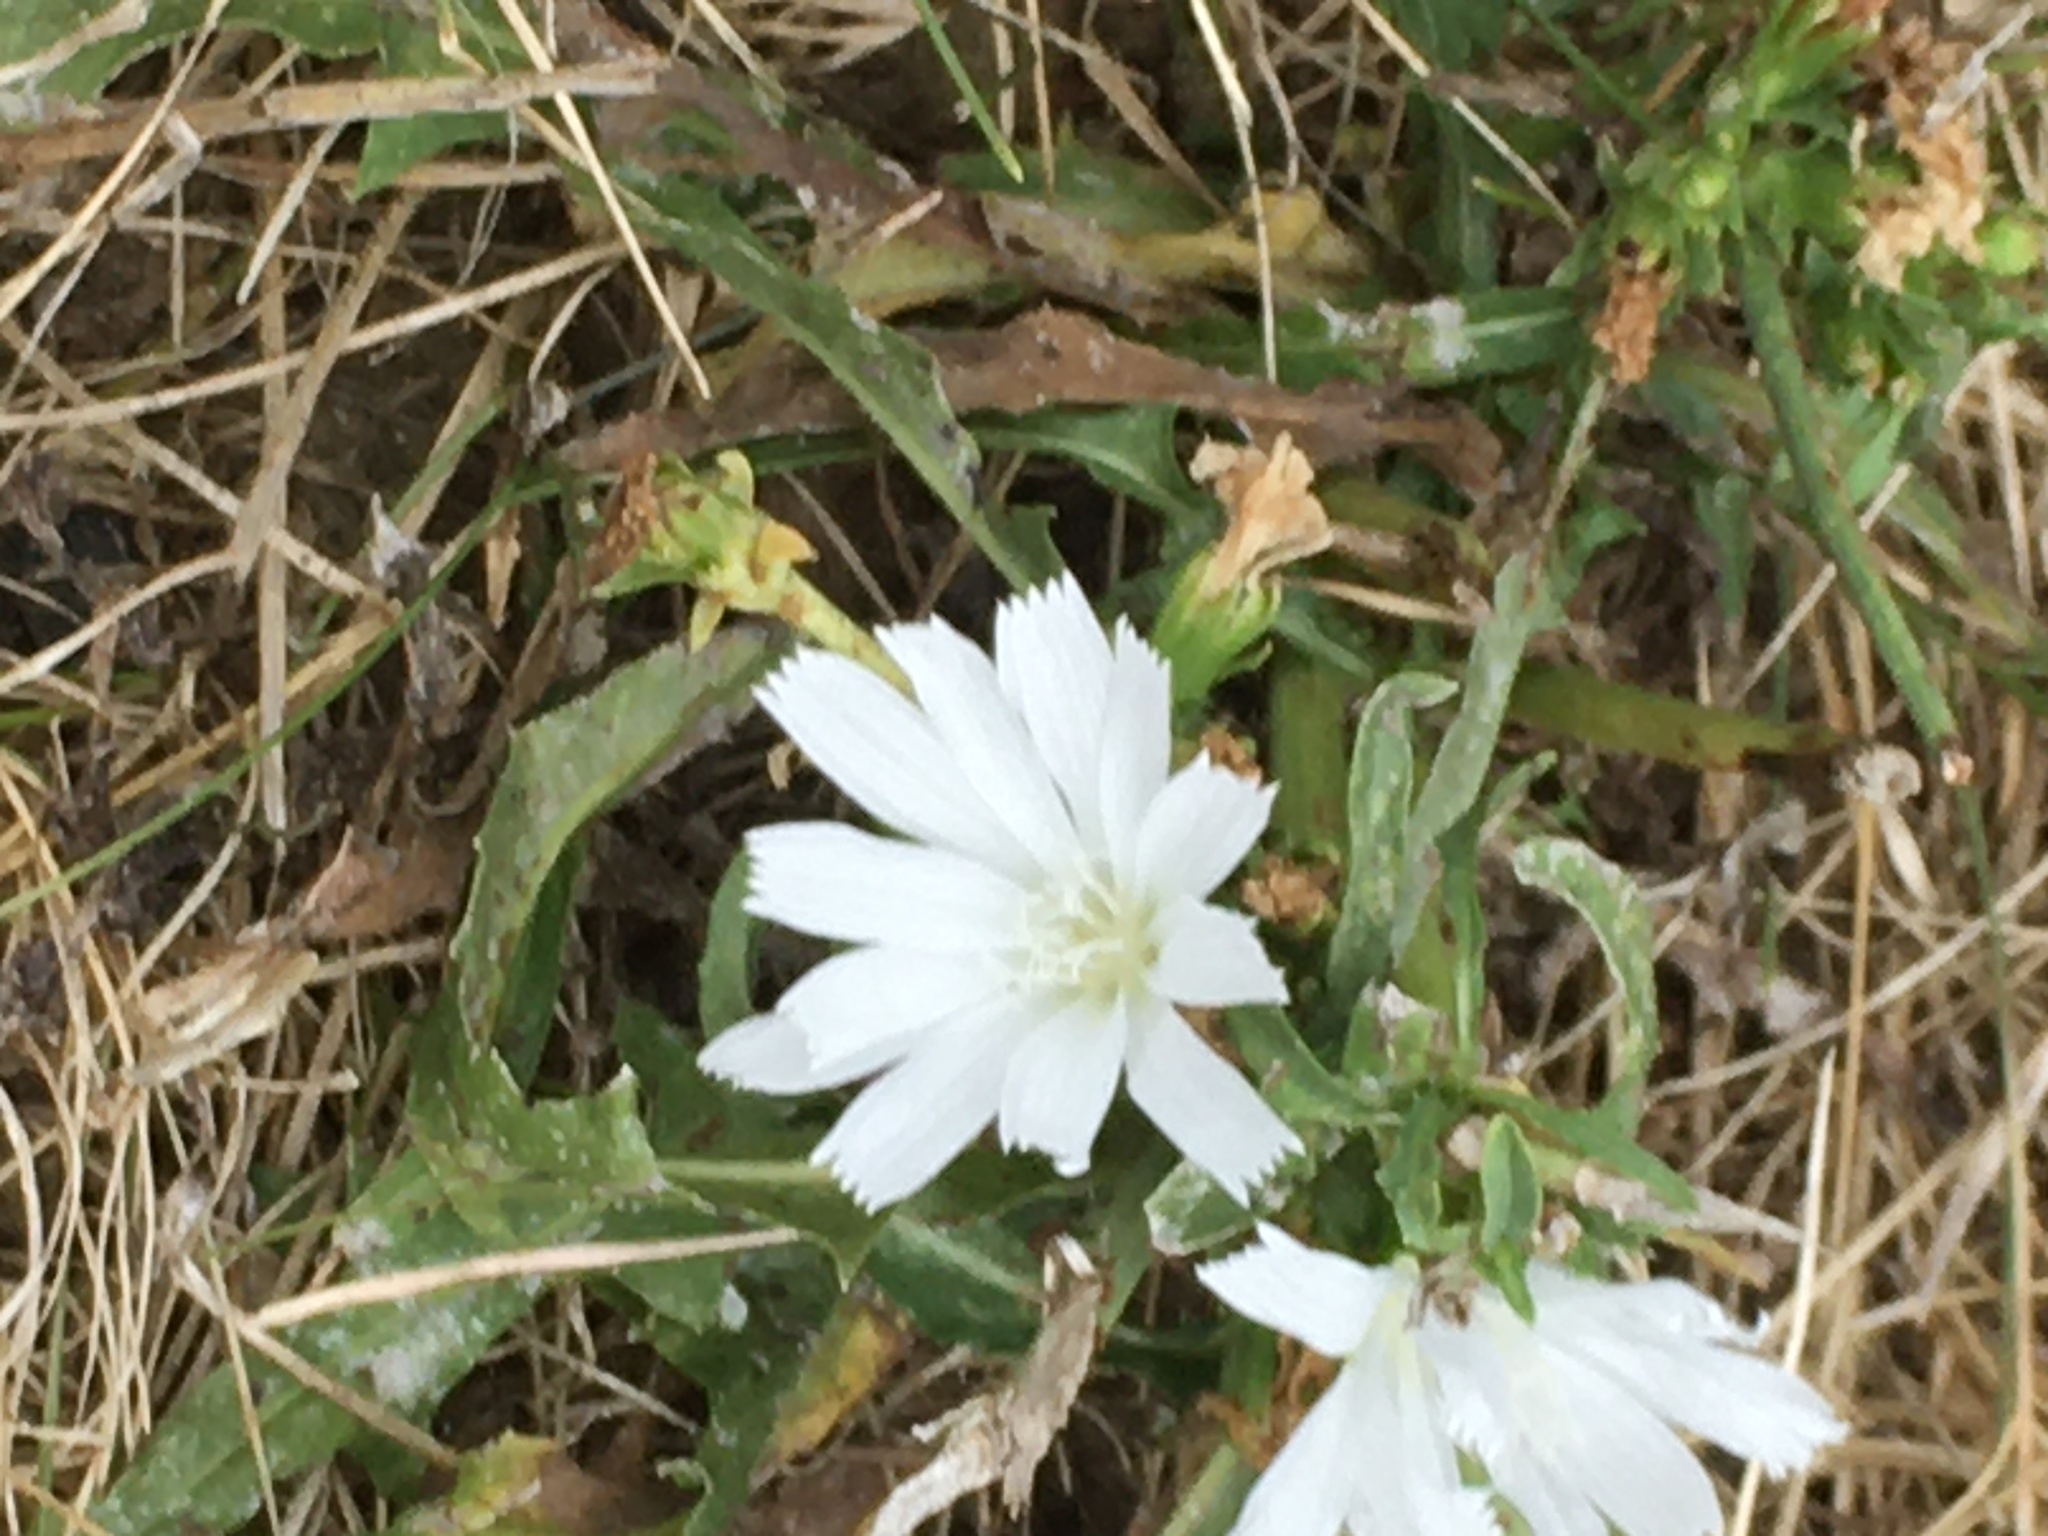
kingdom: Plantae
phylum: Tracheophyta
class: Magnoliopsida
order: Asterales
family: Asteraceae
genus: Cichorium
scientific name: Cichorium intybus
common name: Chicory
